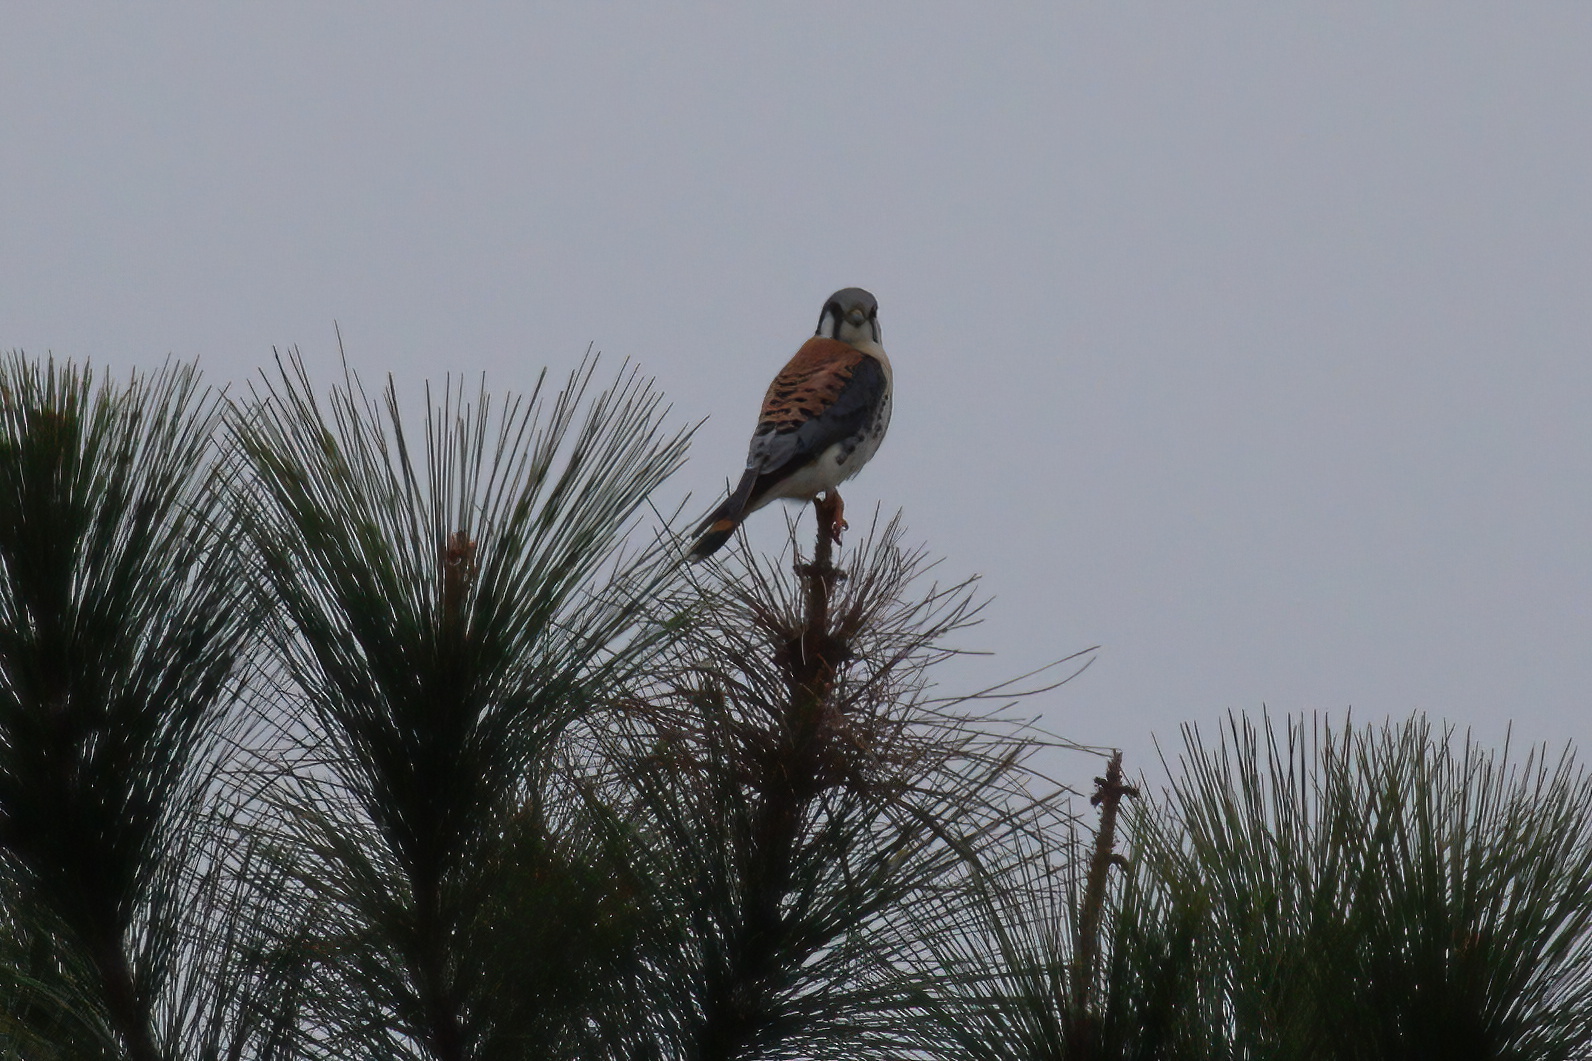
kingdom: Animalia
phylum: Chordata
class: Aves
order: Falconiformes
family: Falconidae
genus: Falco
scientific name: Falco sparverius
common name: American kestrel
